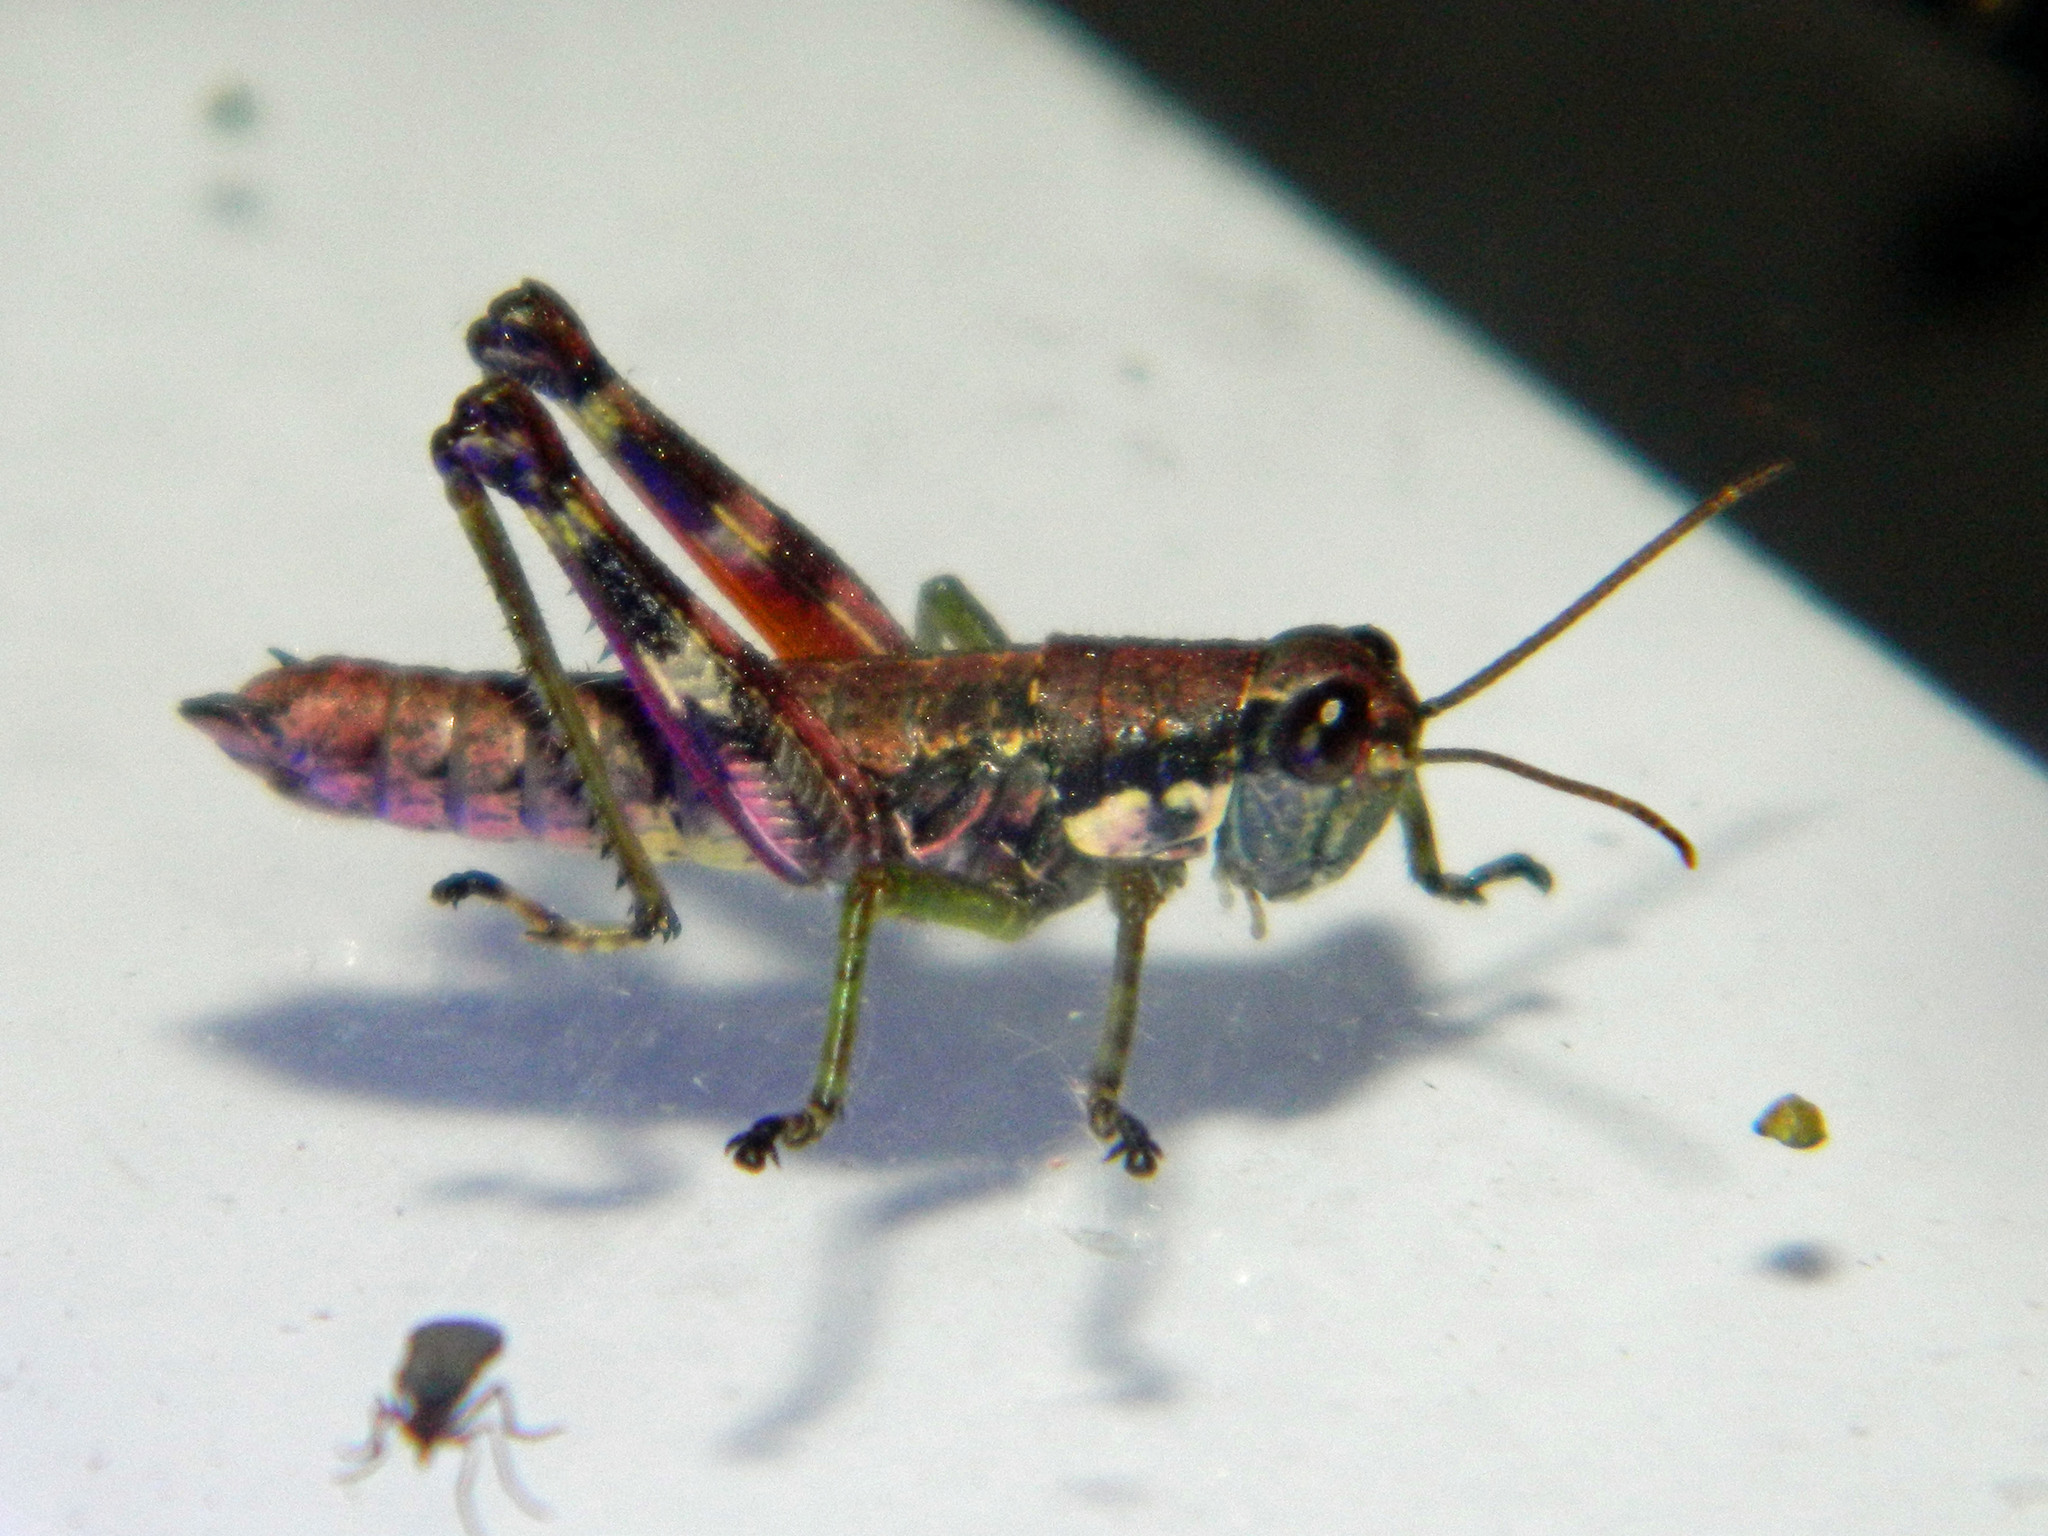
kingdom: Animalia
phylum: Arthropoda
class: Insecta
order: Orthoptera
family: Acrididae
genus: Booneacris
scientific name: Booneacris glacialis
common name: Wingless mountain grasshopper
